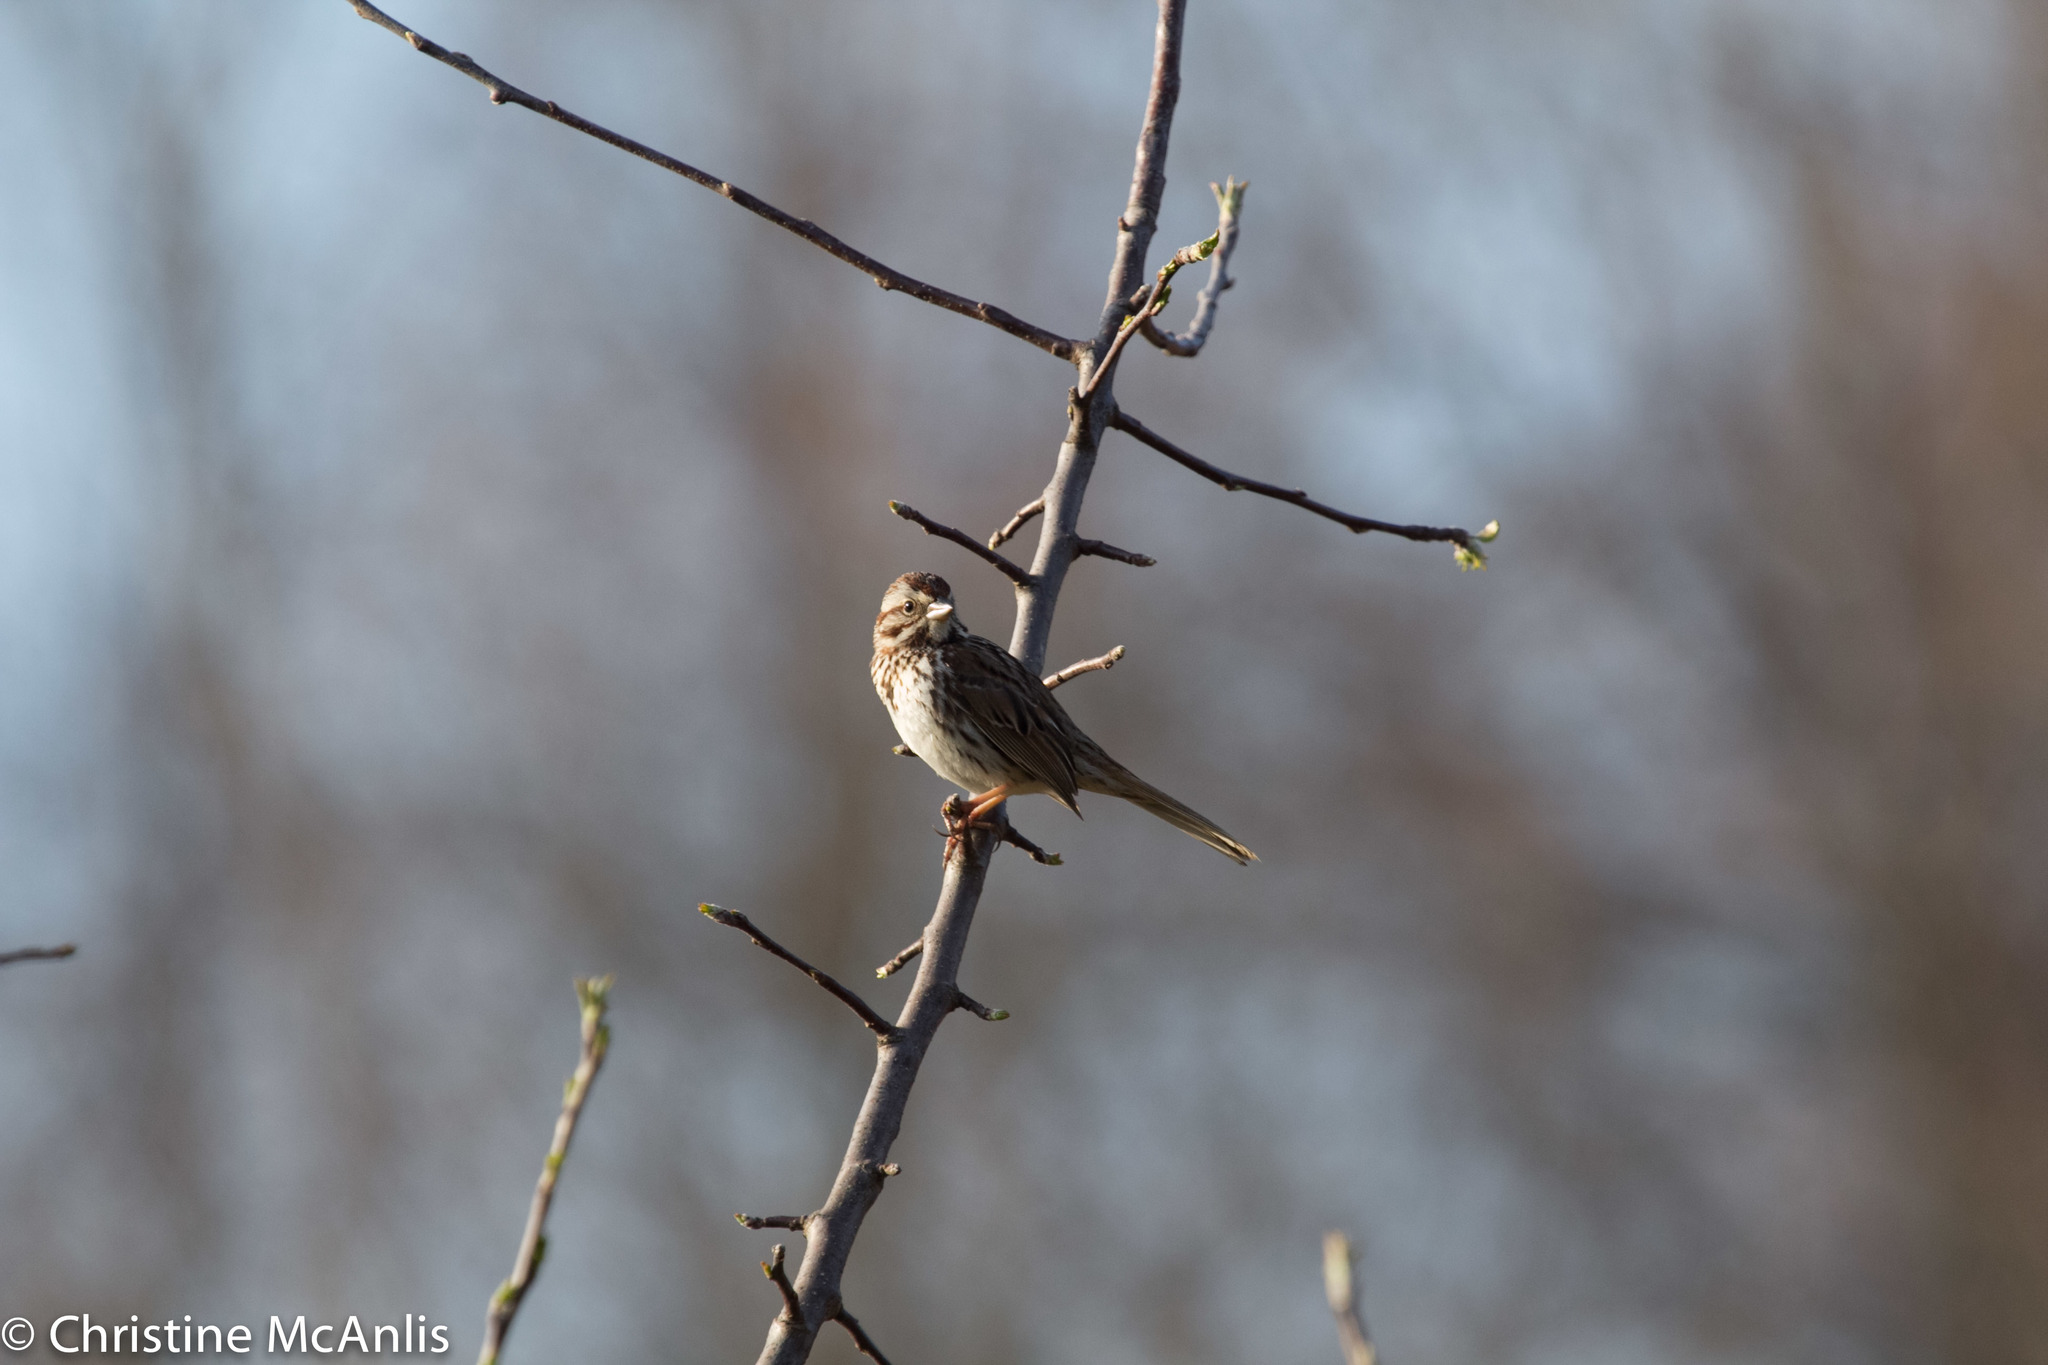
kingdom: Animalia
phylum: Chordata
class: Aves
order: Passeriformes
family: Passerellidae
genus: Melospiza
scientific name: Melospiza melodia
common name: Song sparrow
